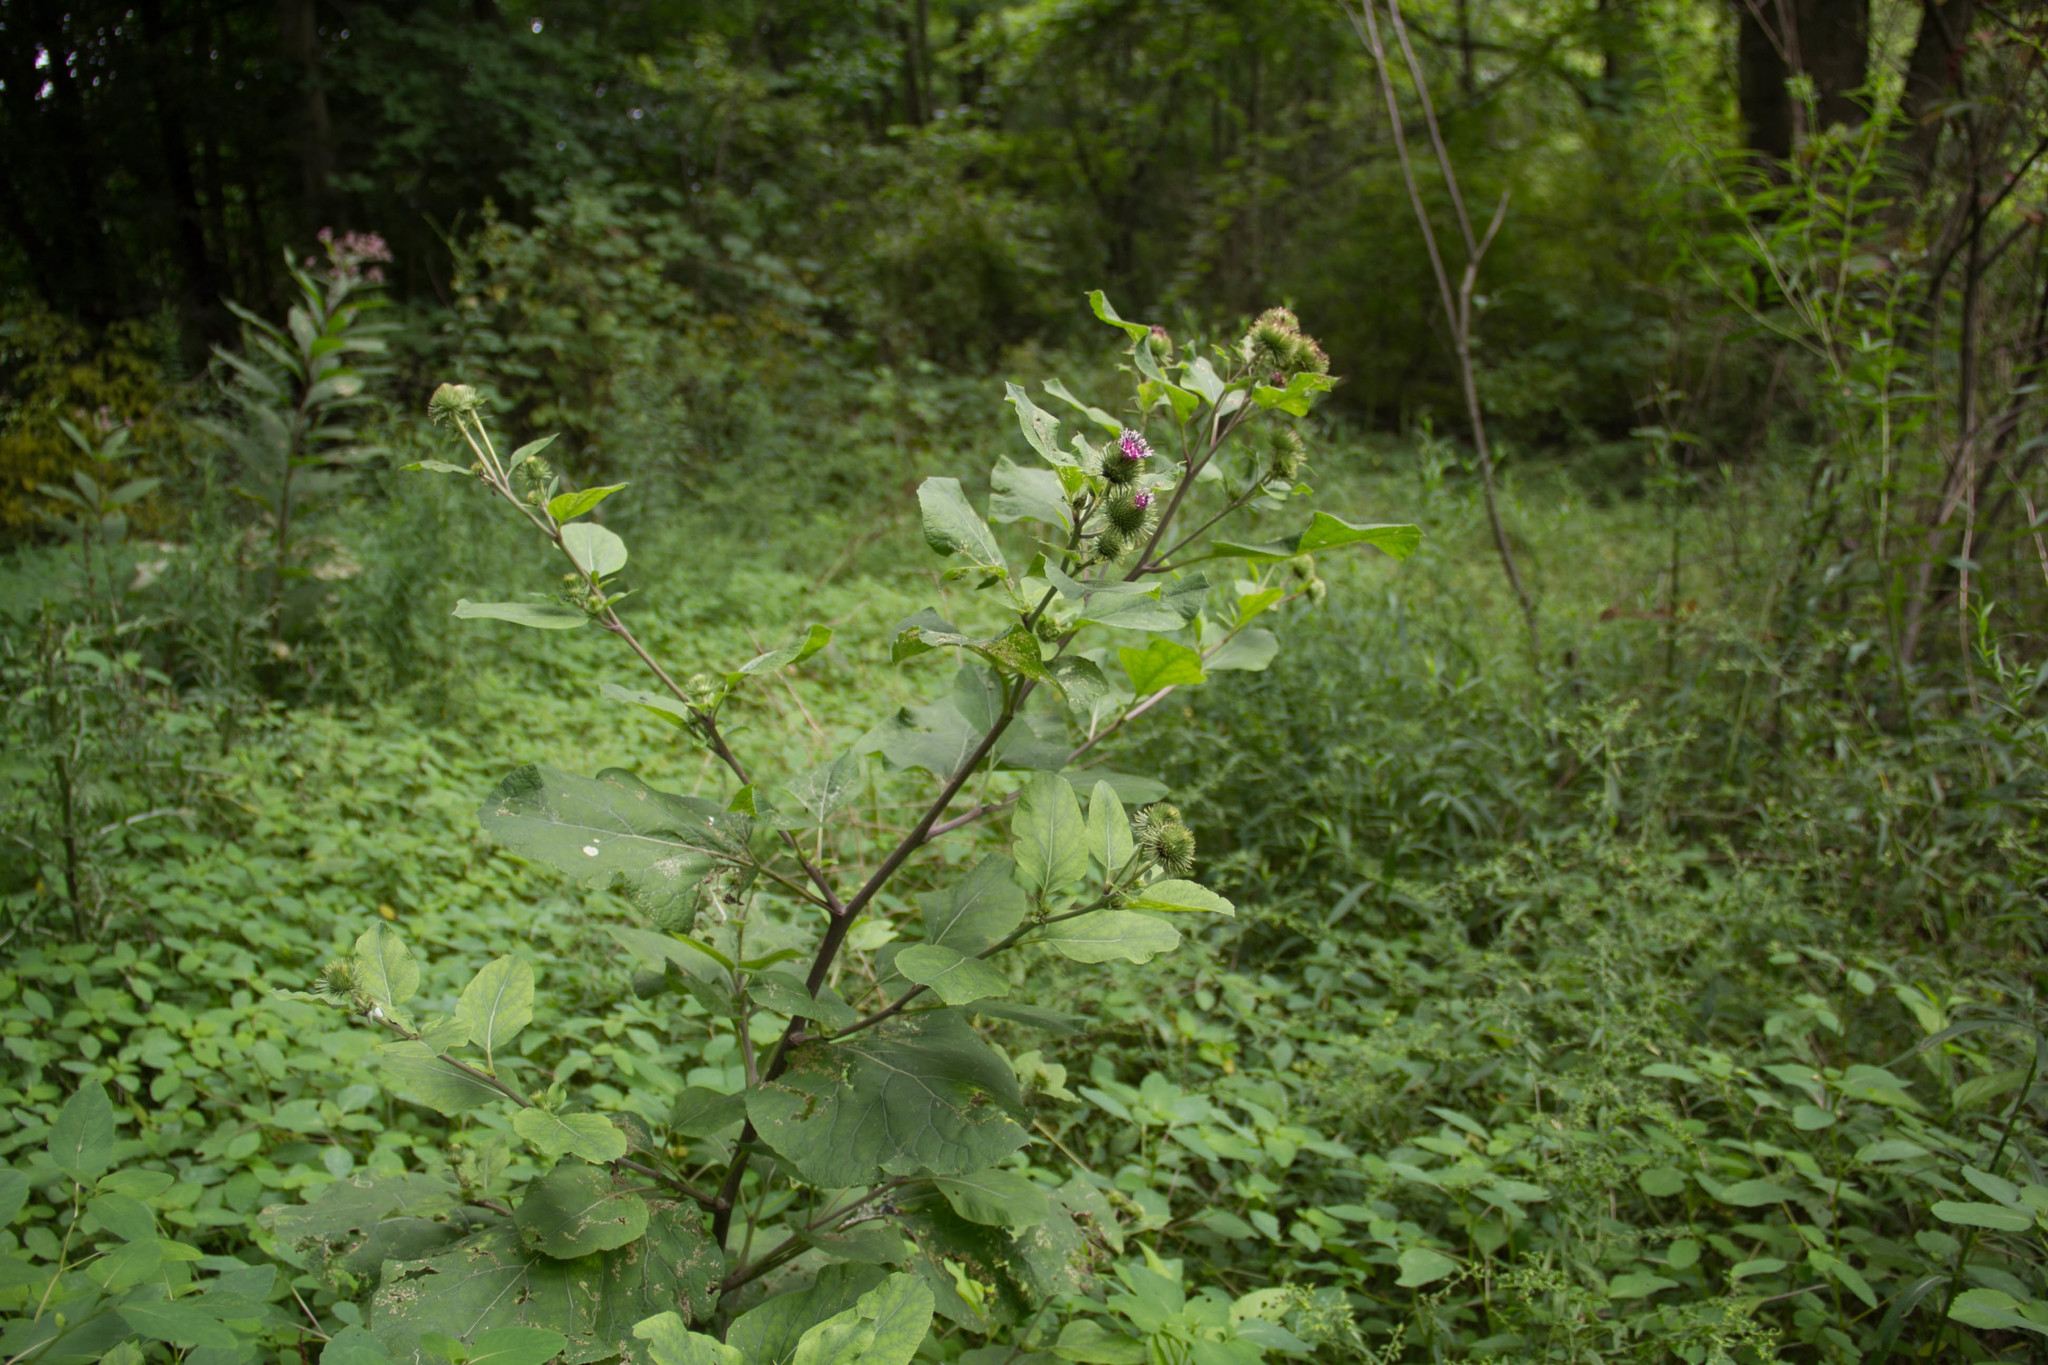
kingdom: Plantae
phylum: Tracheophyta
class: Magnoliopsida
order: Asterales
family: Asteraceae
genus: Arctium
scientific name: Arctium minus
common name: Lesser burdock
